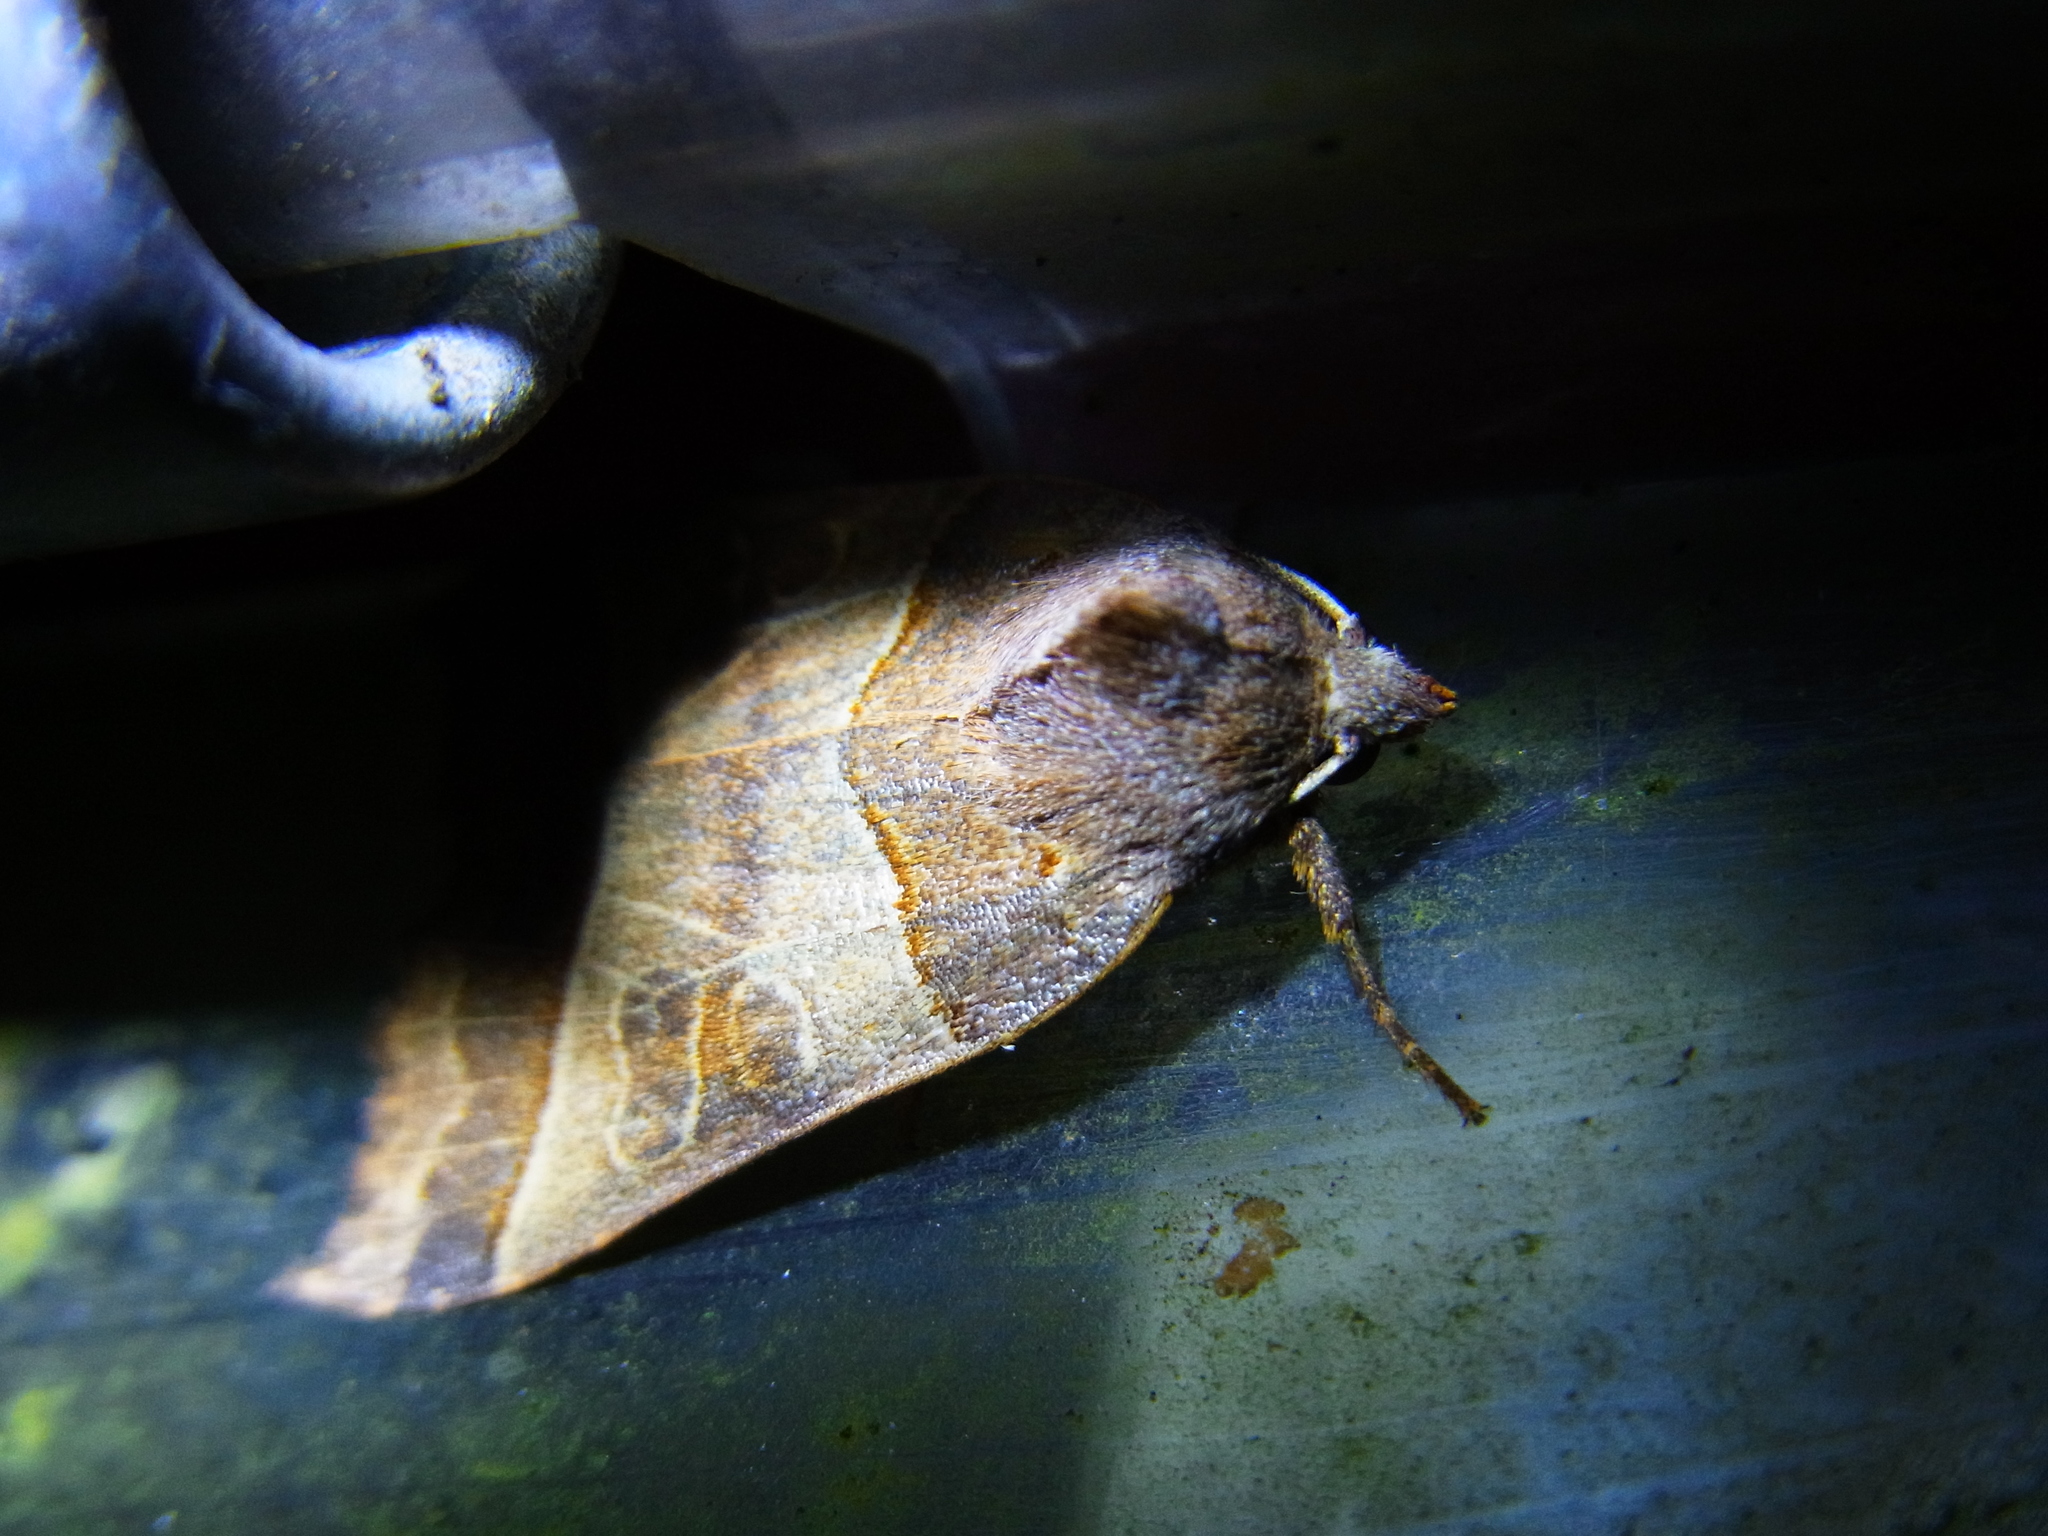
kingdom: Animalia
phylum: Arthropoda
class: Insecta
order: Lepidoptera
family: Noctuidae
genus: Telorta
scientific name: Telorta acuminata
